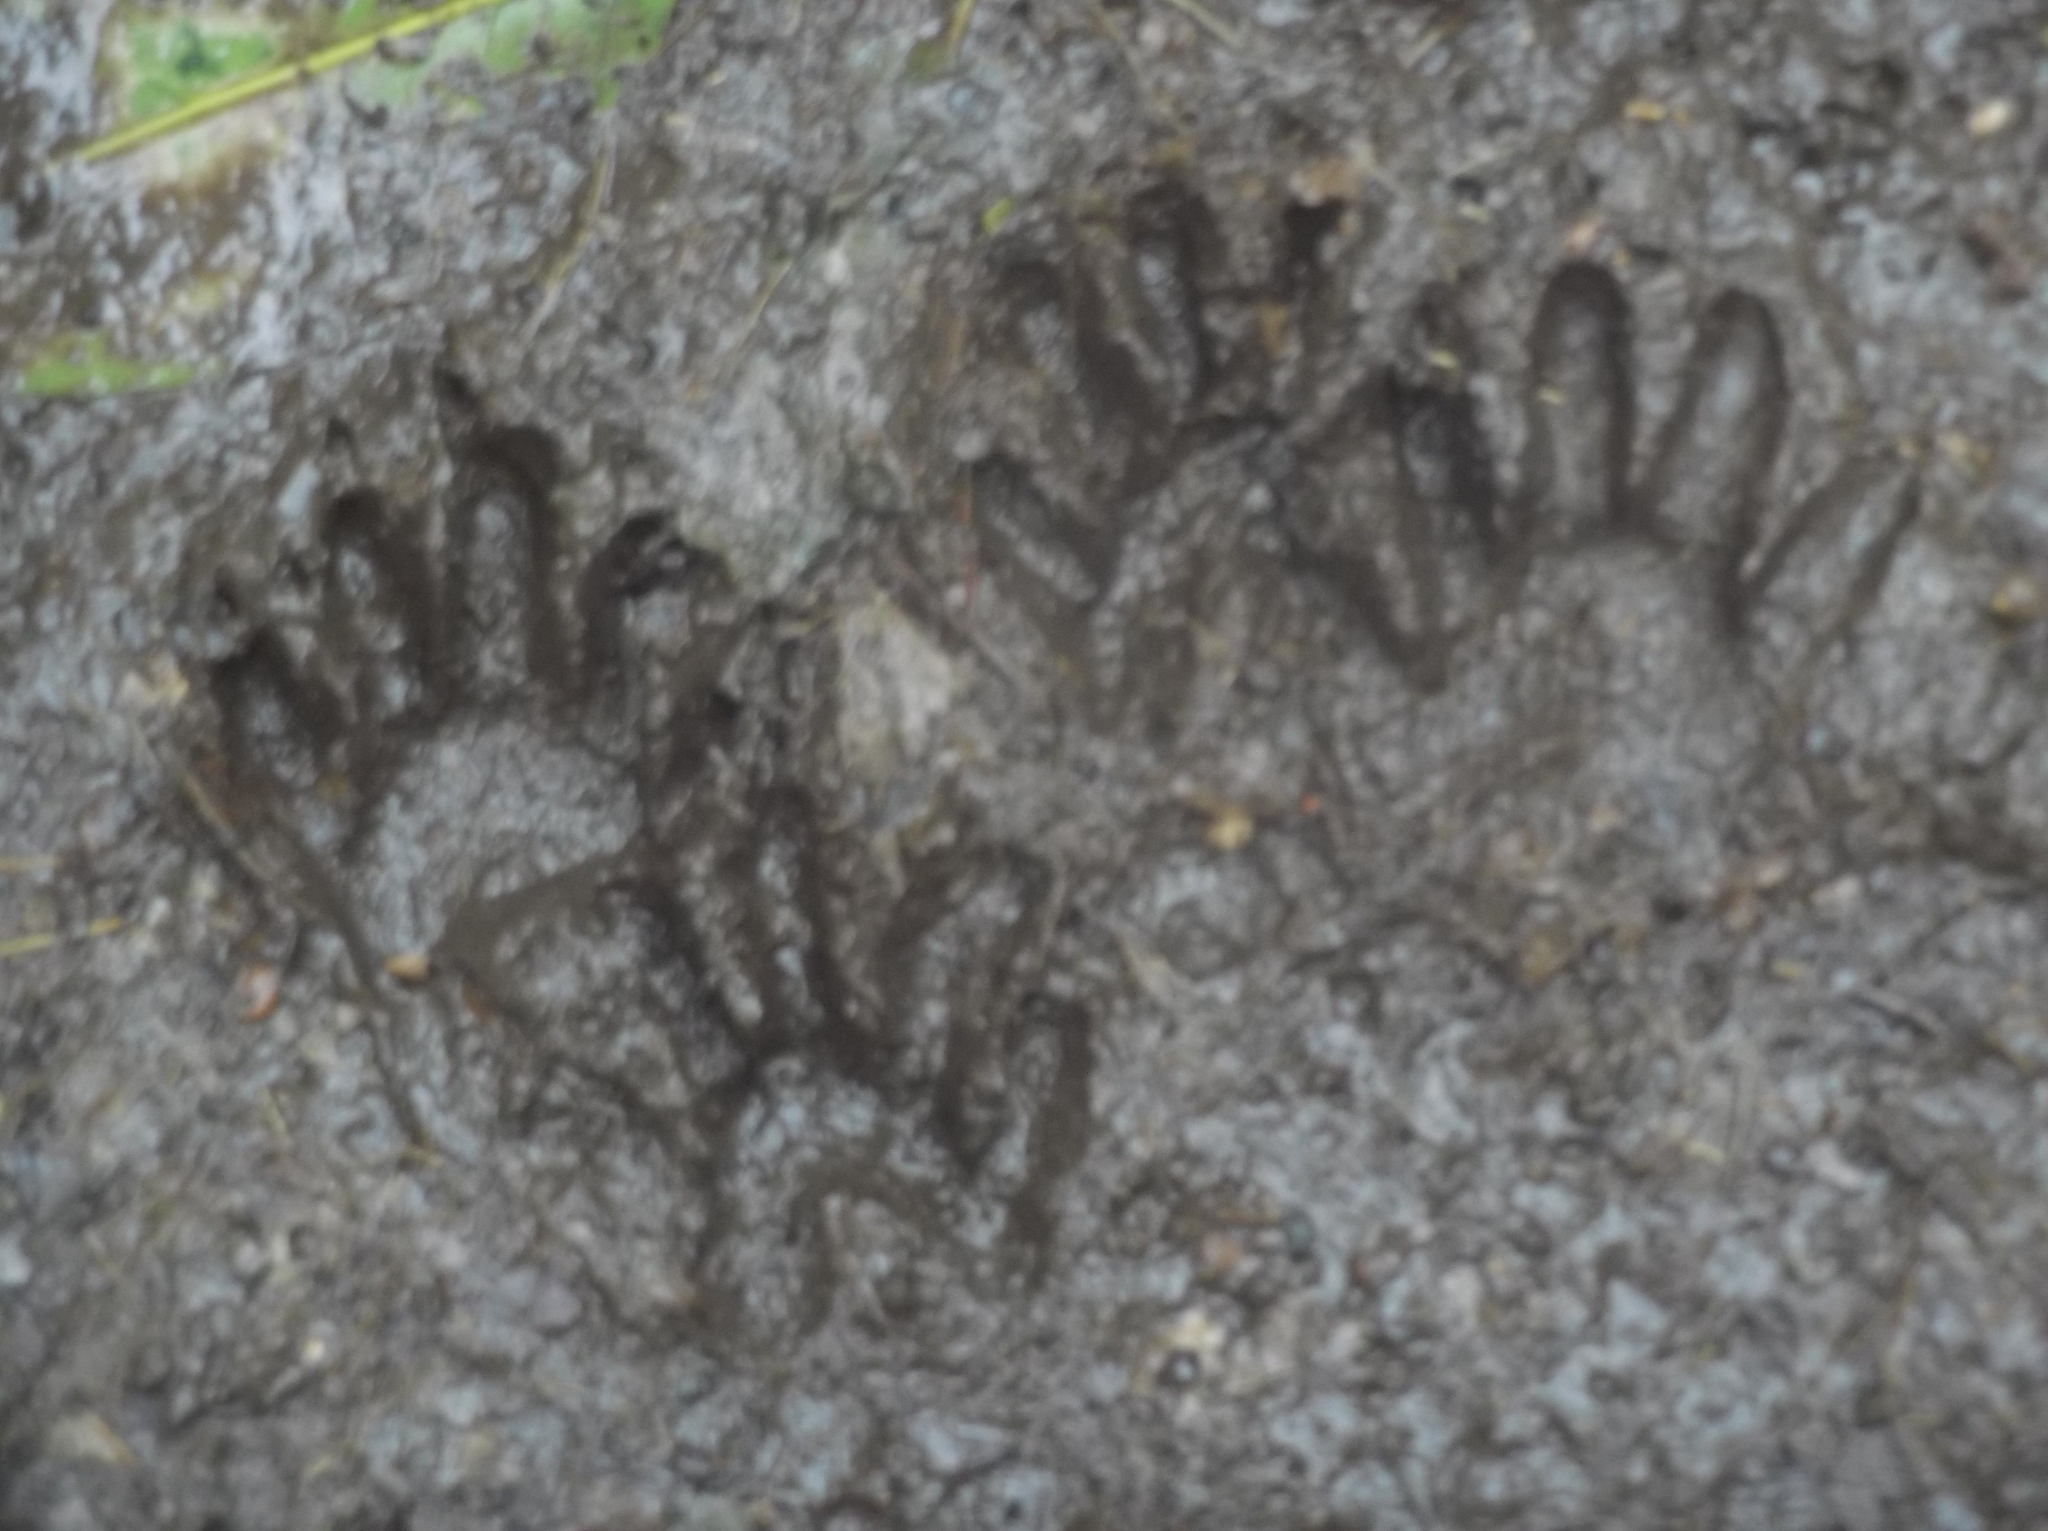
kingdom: Animalia
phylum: Chordata
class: Mammalia
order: Carnivora
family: Procyonidae
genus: Procyon
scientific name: Procyon lotor
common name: Raccoon
